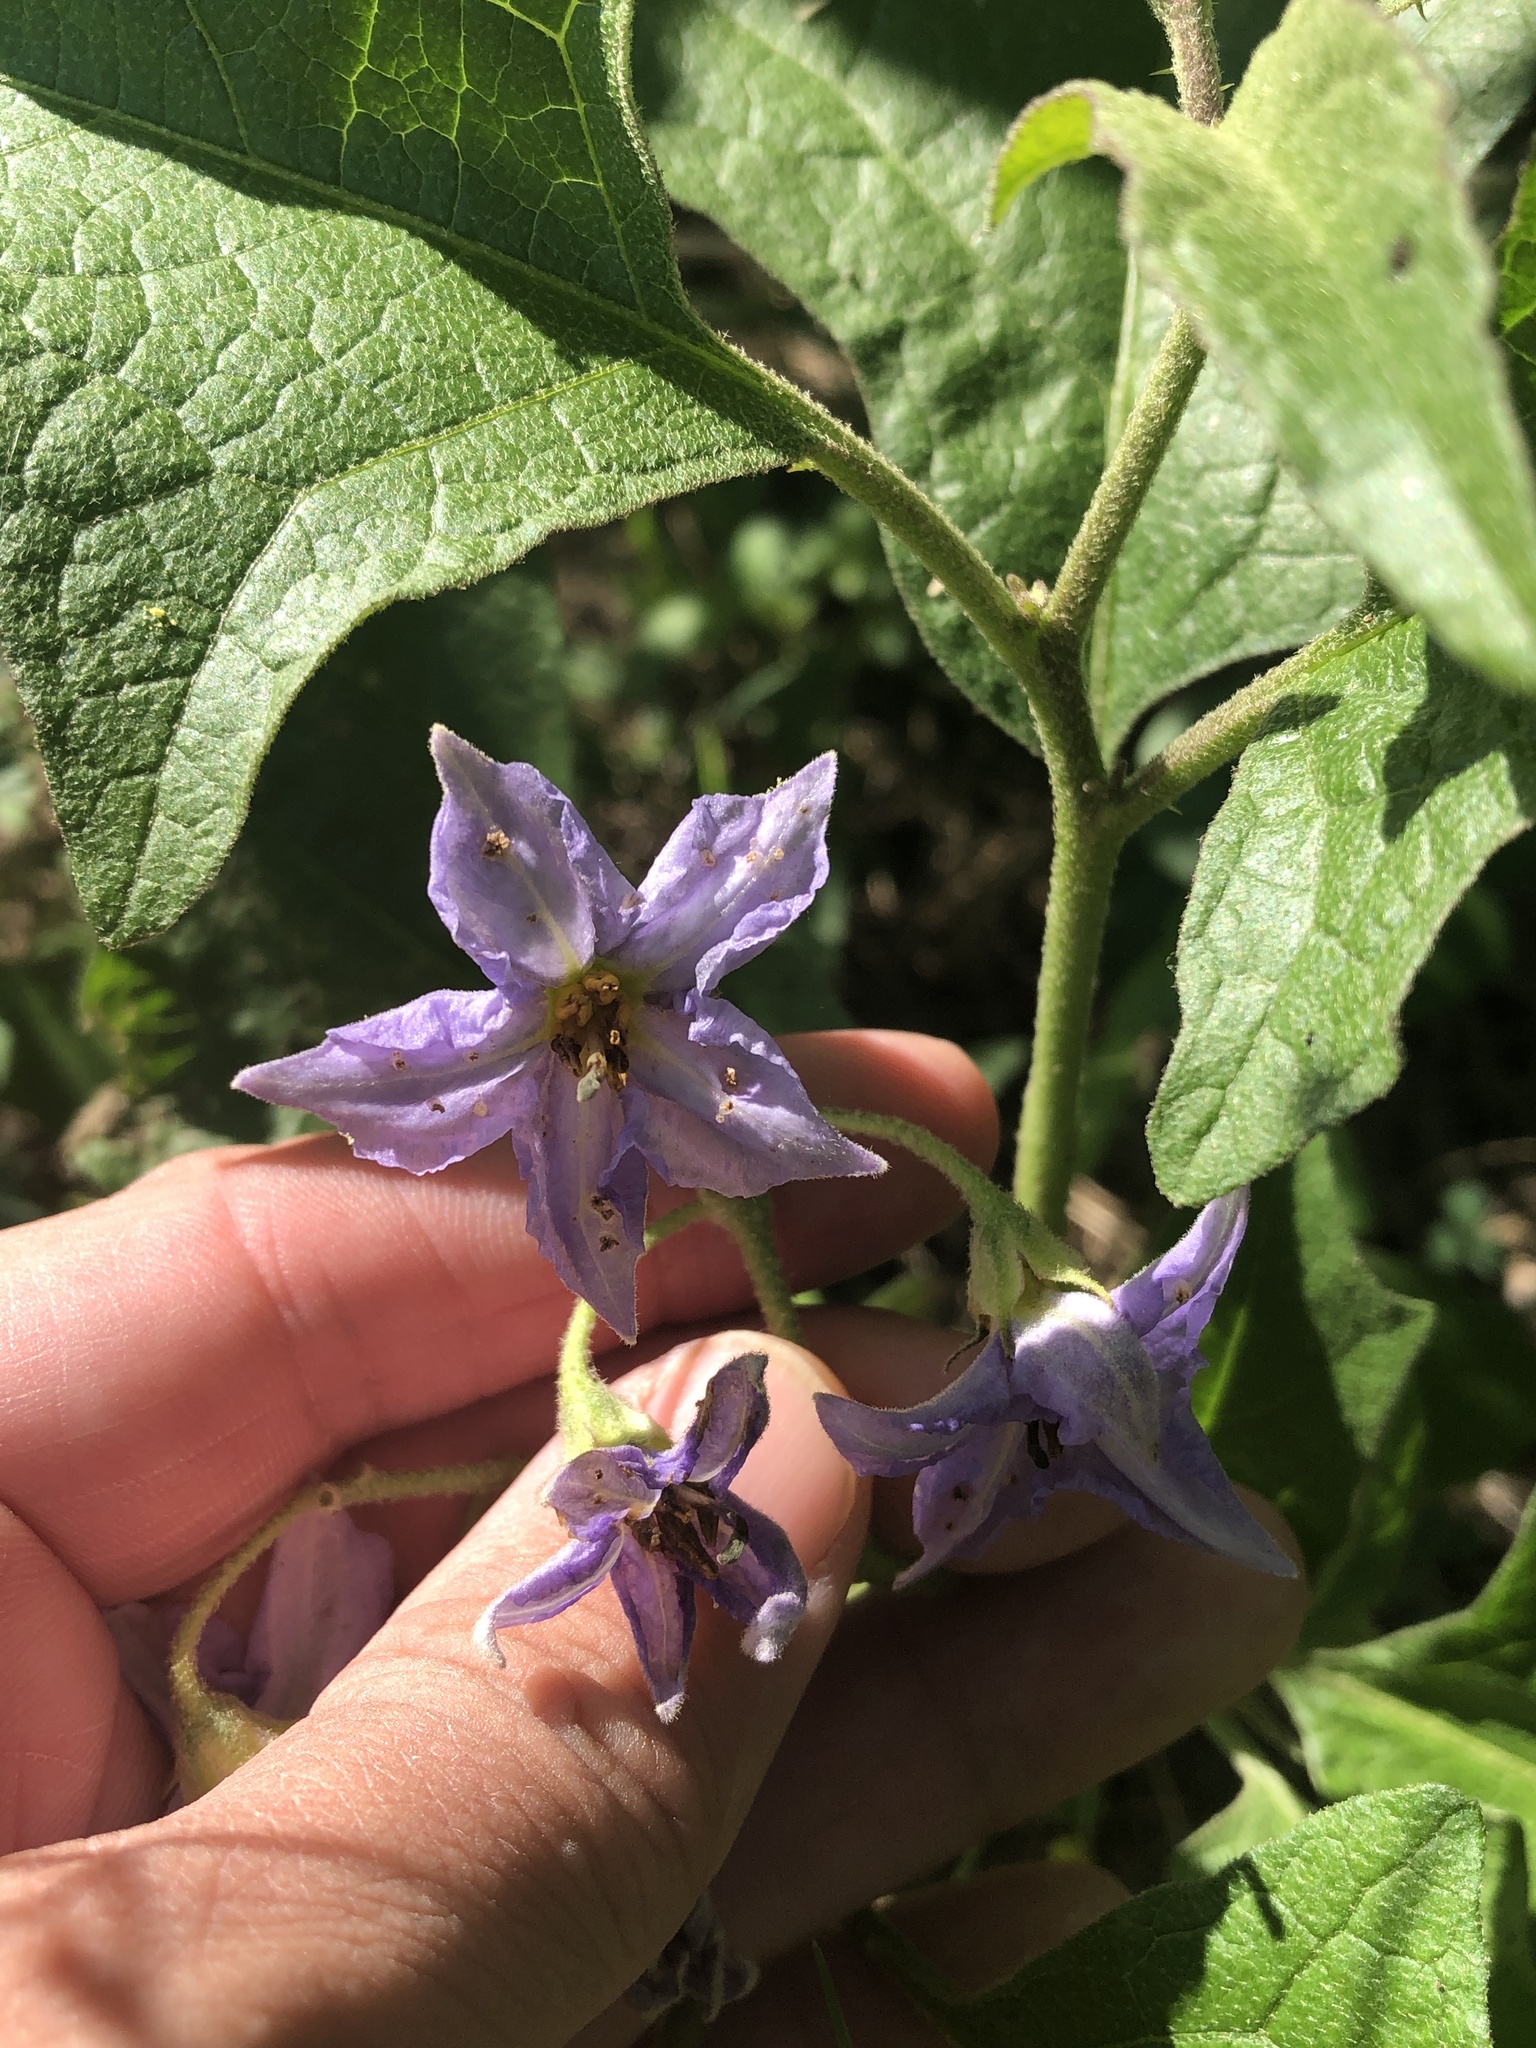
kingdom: Plantae
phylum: Tracheophyta
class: Magnoliopsida
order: Solanales
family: Solanaceae
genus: Solanum
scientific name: Solanum dimidiatum
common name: Carolina horse-nettle
